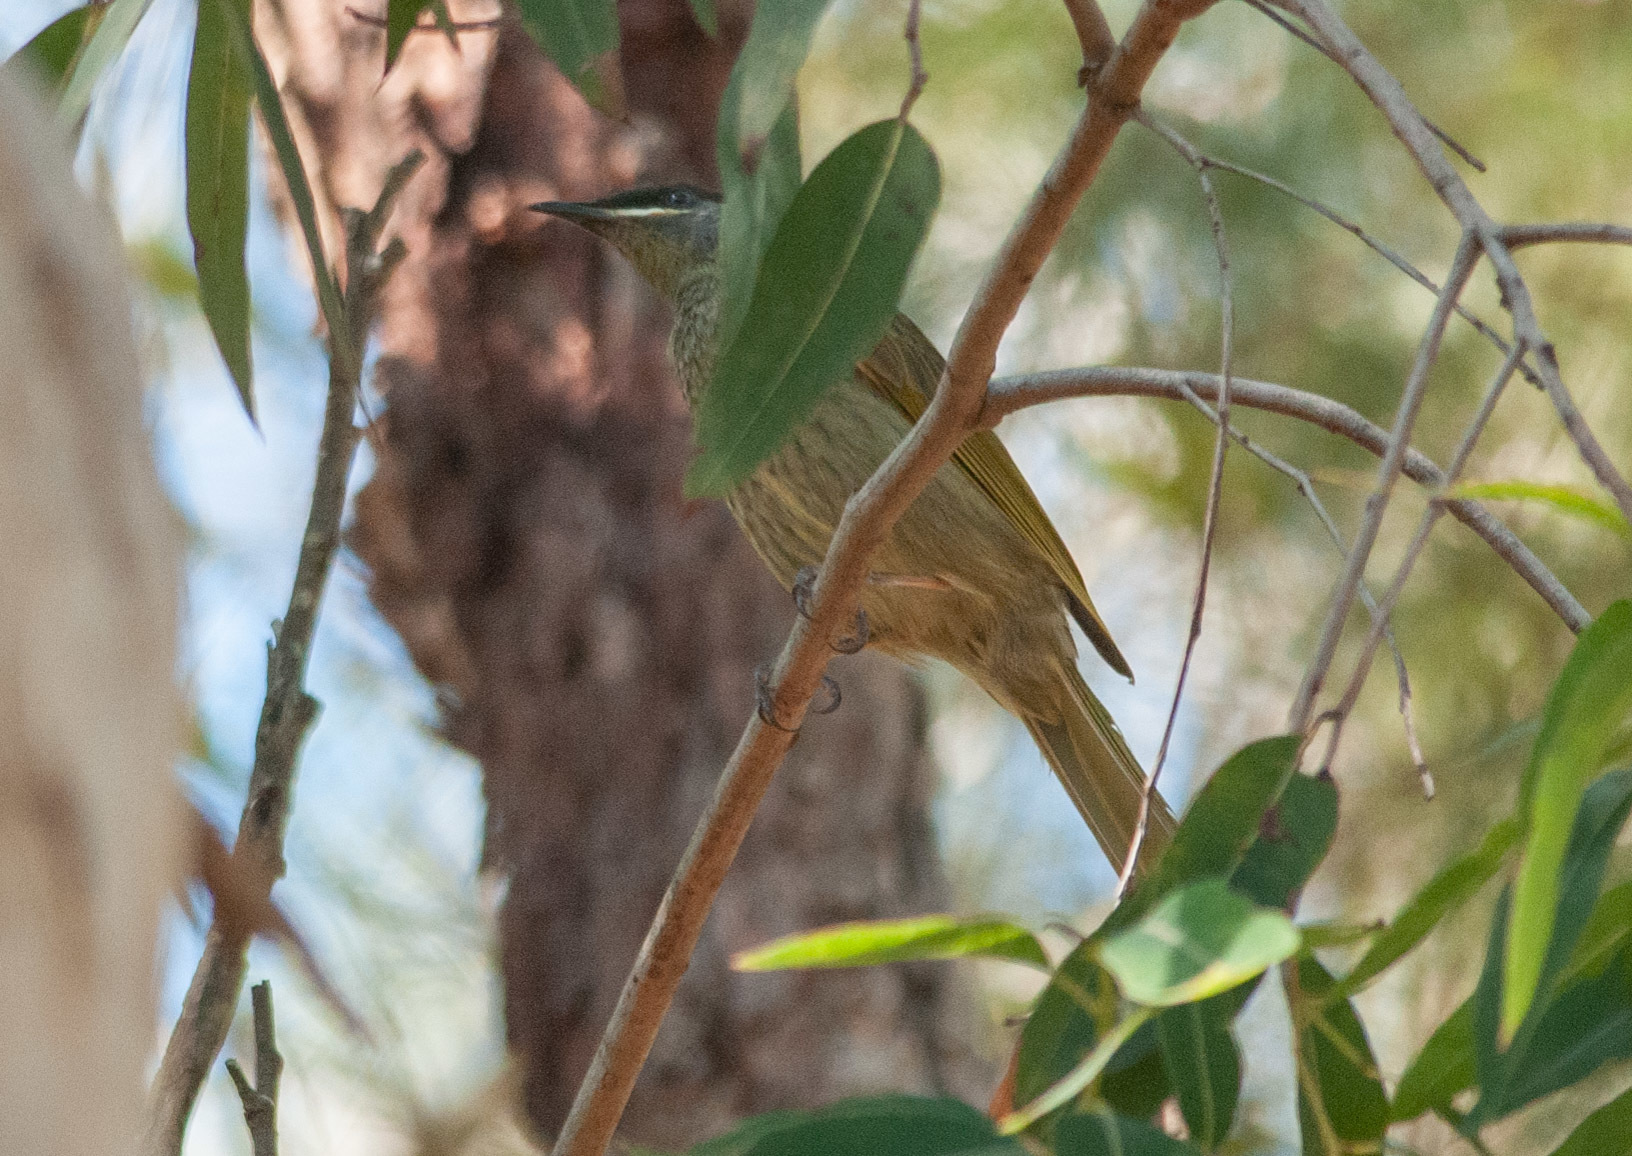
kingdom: Animalia
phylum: Chordata
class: Aves
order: Passeriformes
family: Meliphagidae
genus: Meliphaga
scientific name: Meliphaga lewinii
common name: Lewin's honeyeater
